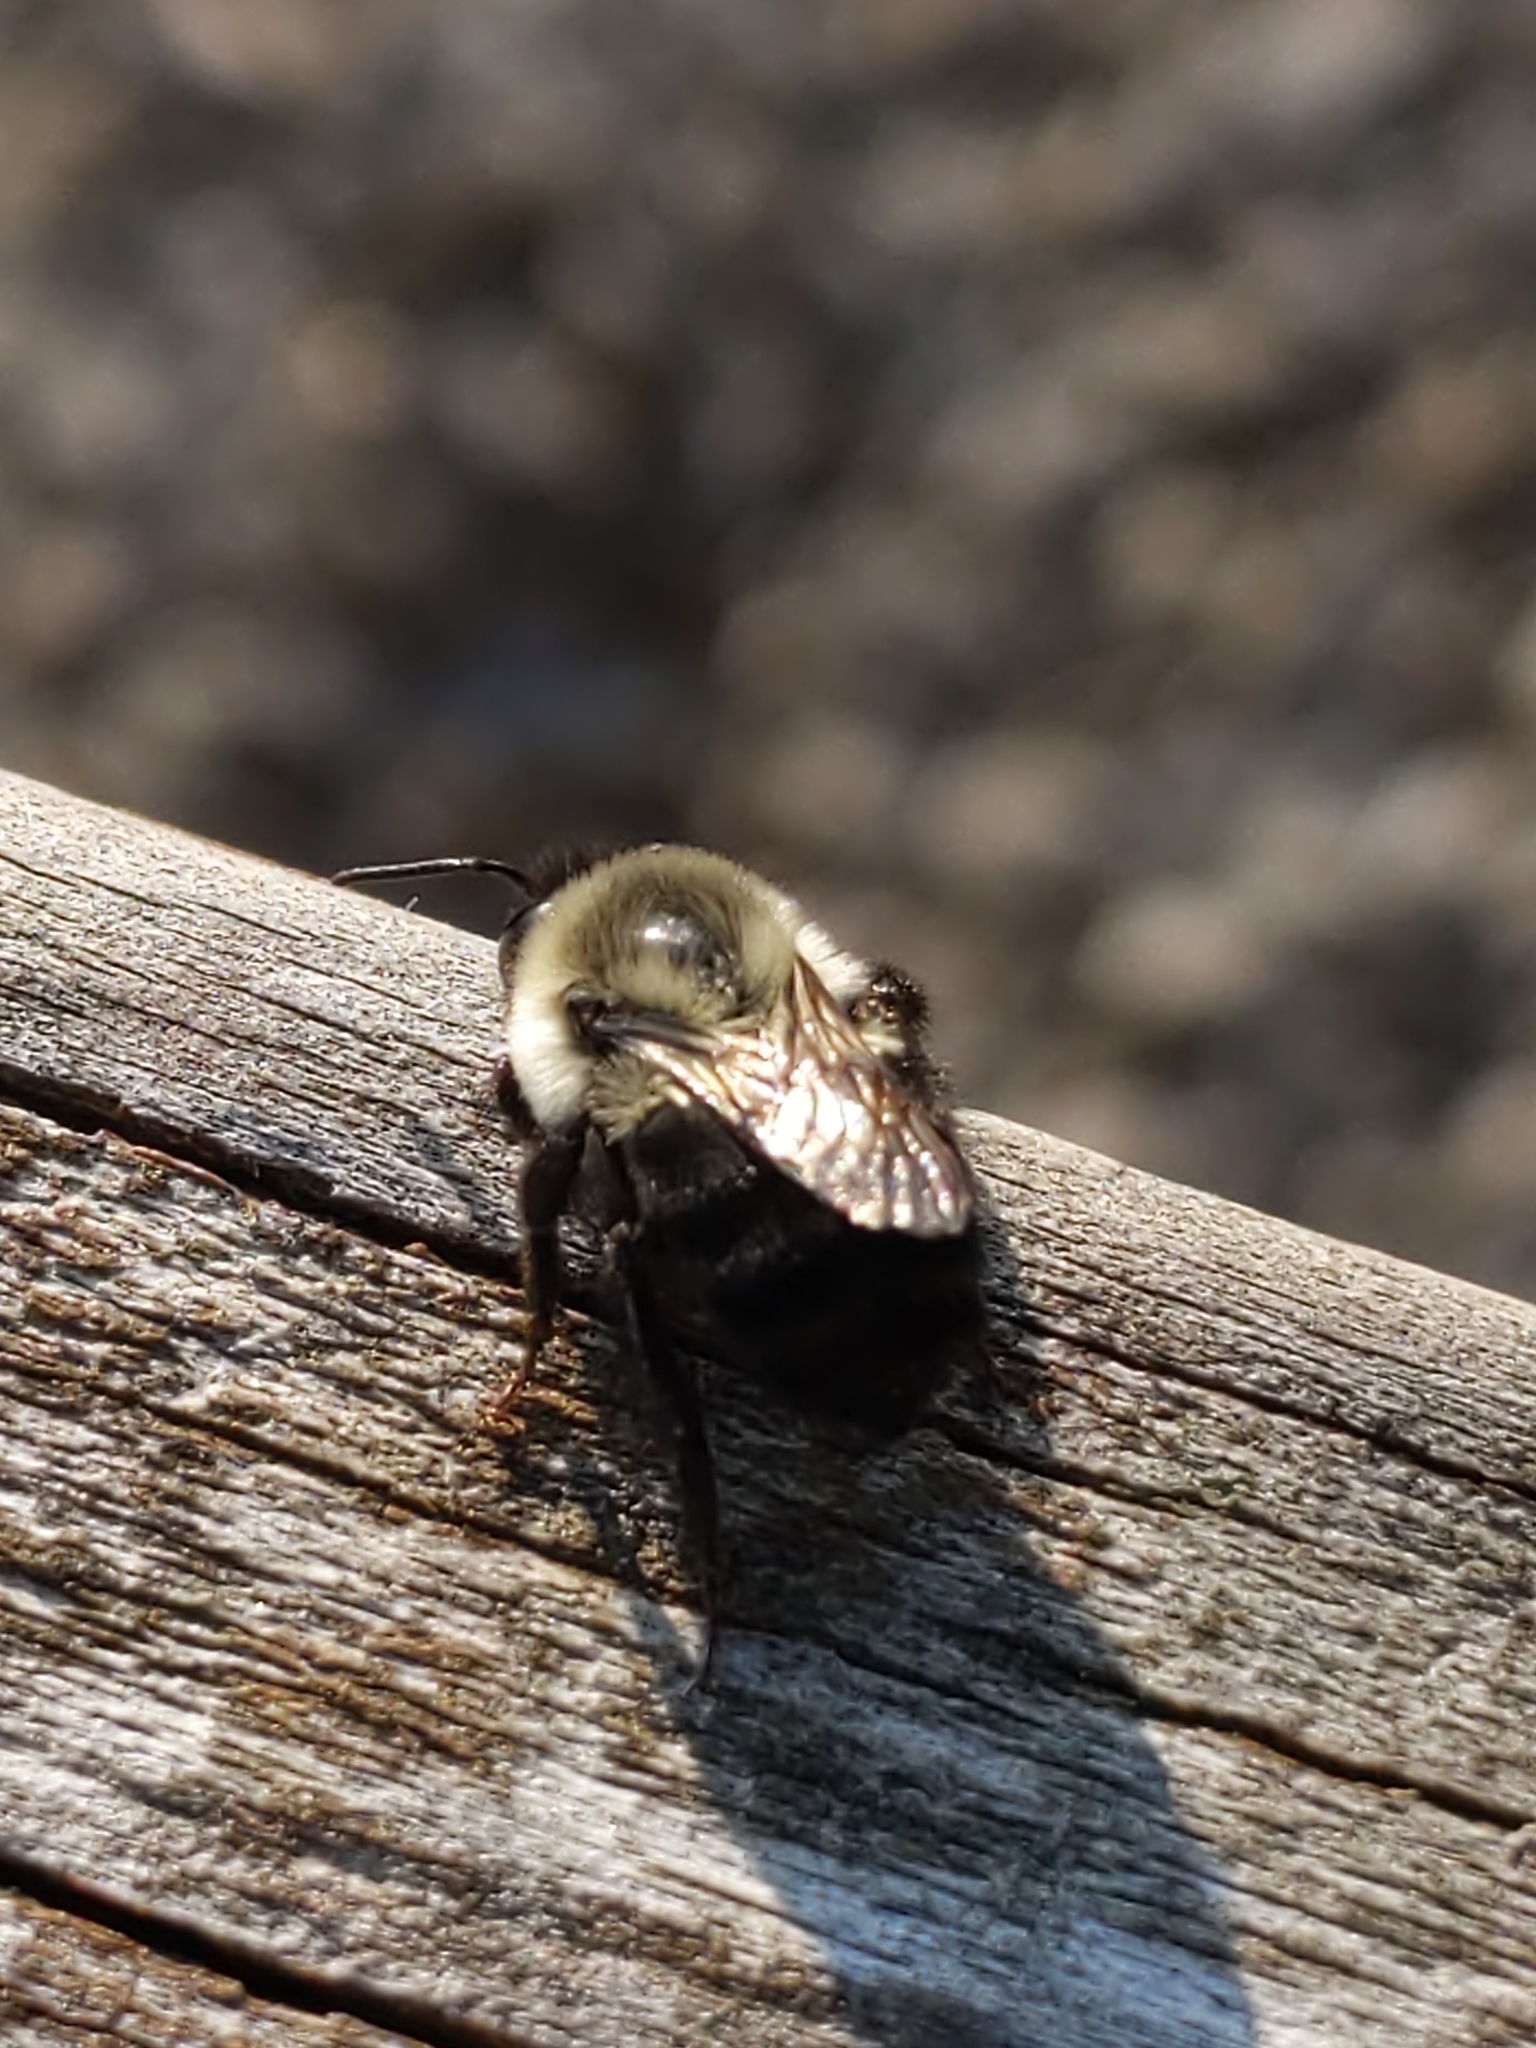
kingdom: Animalia
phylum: Arthropoda
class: Insecta
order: Hymenoptera
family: Apidae
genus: Bombus
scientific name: Bombus impatiens
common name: Common eastern bumble bee
